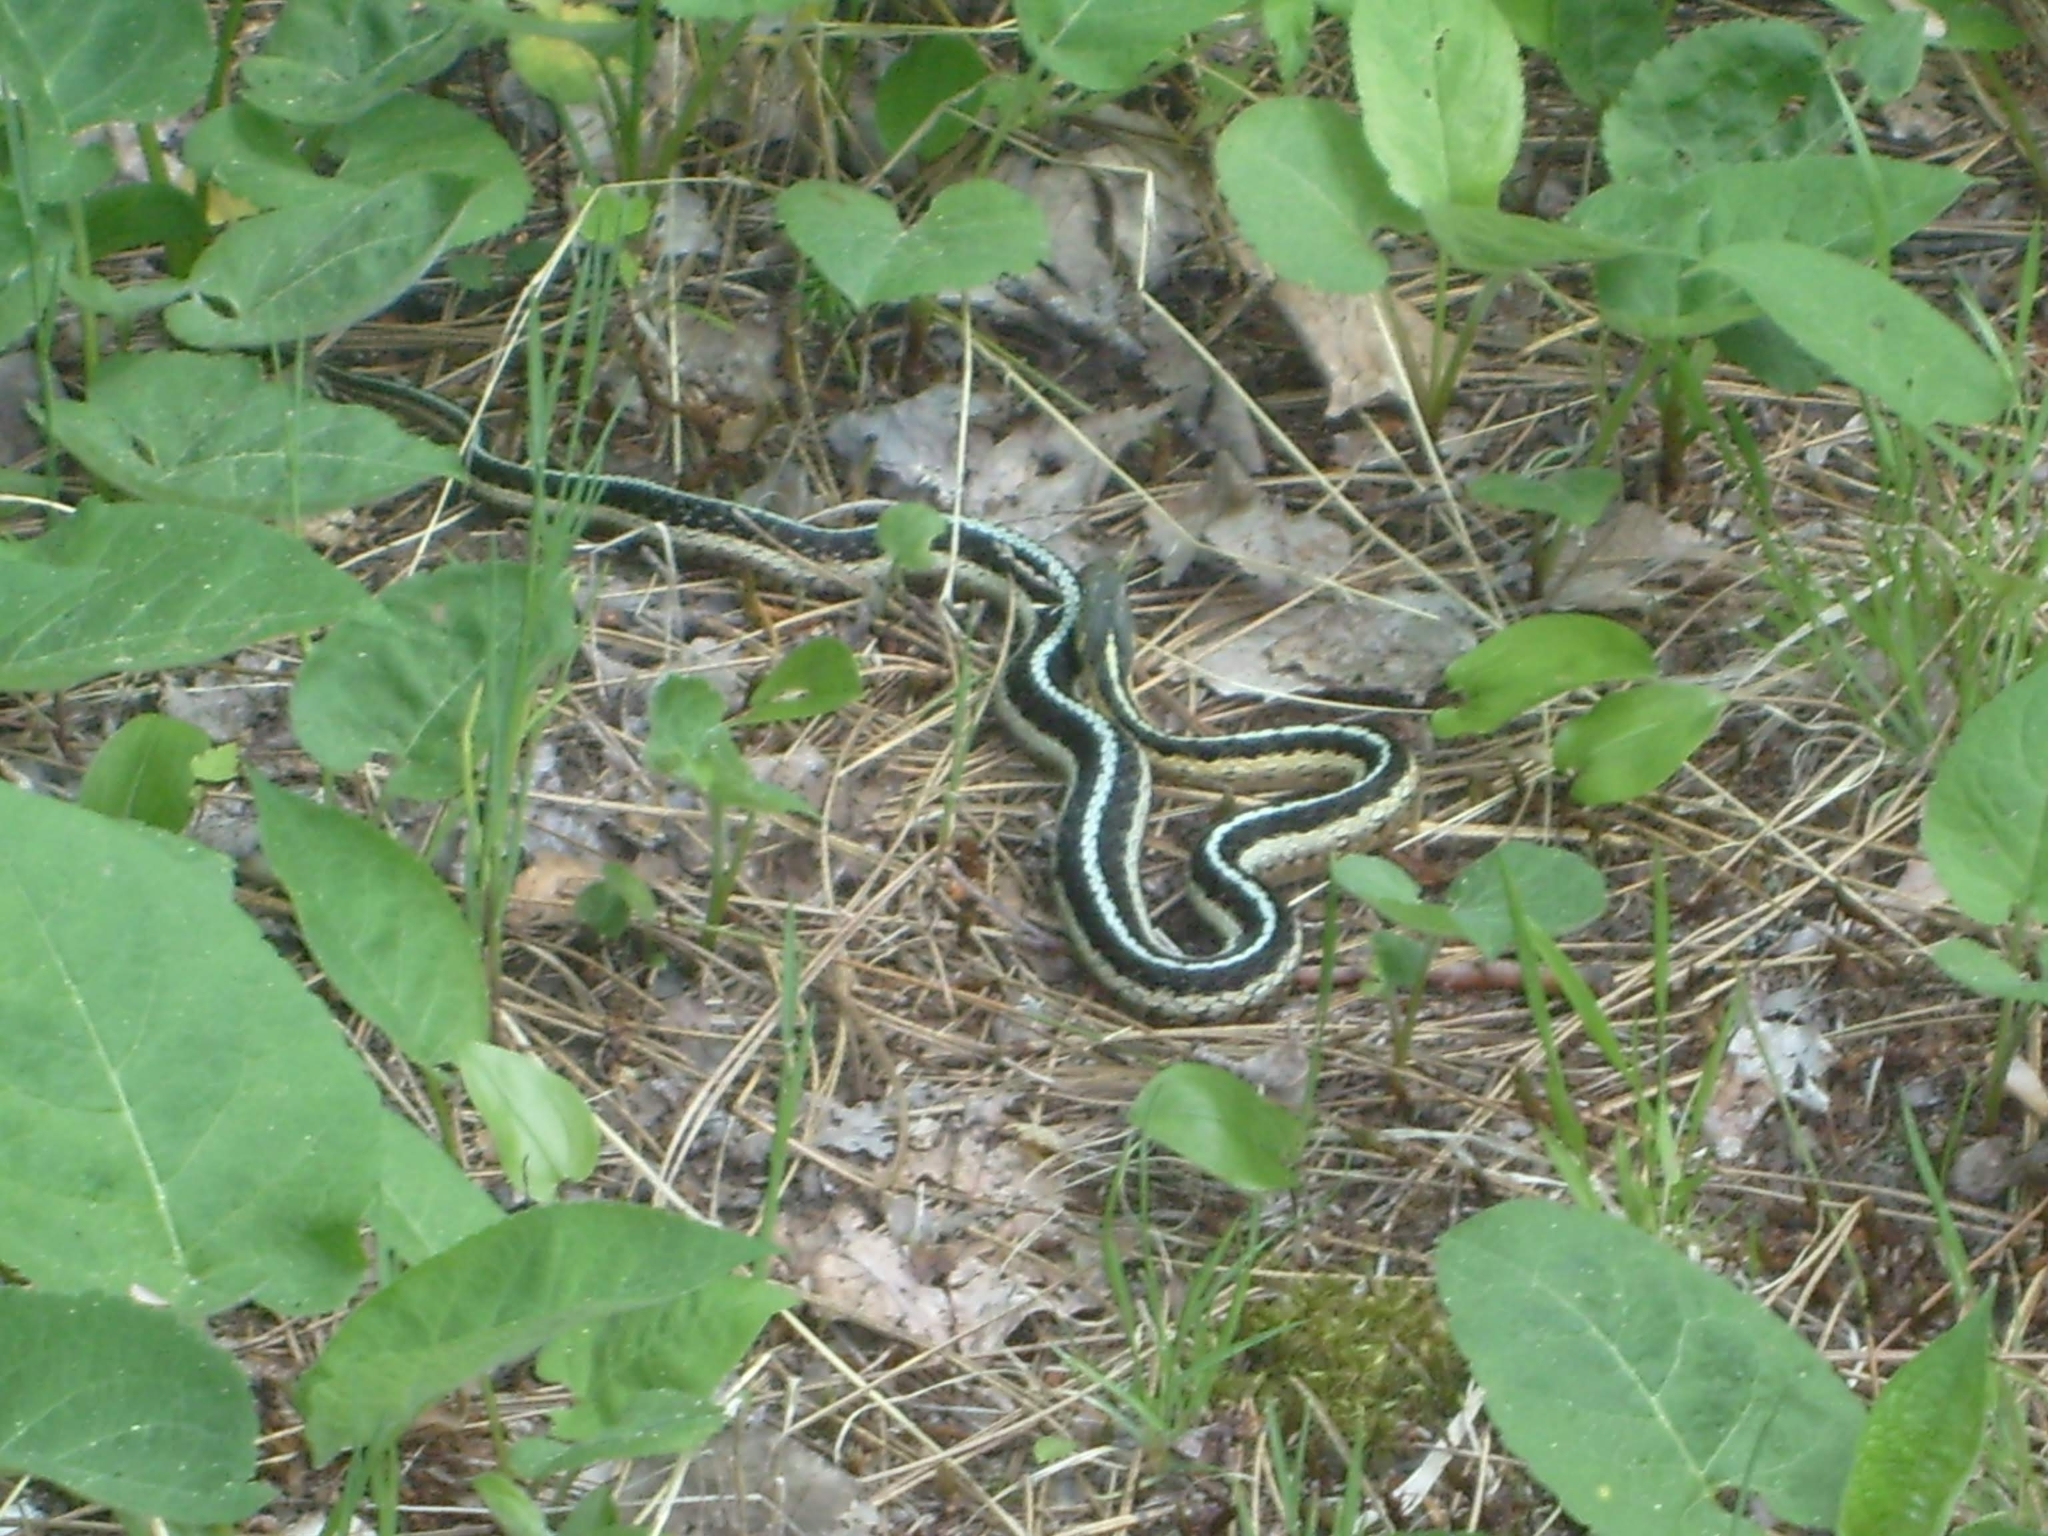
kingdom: Animalia
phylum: Chordata
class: Squamata
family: Colubridae
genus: Thamnophis
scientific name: Thamnophis sirtalis
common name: Common garter snake
